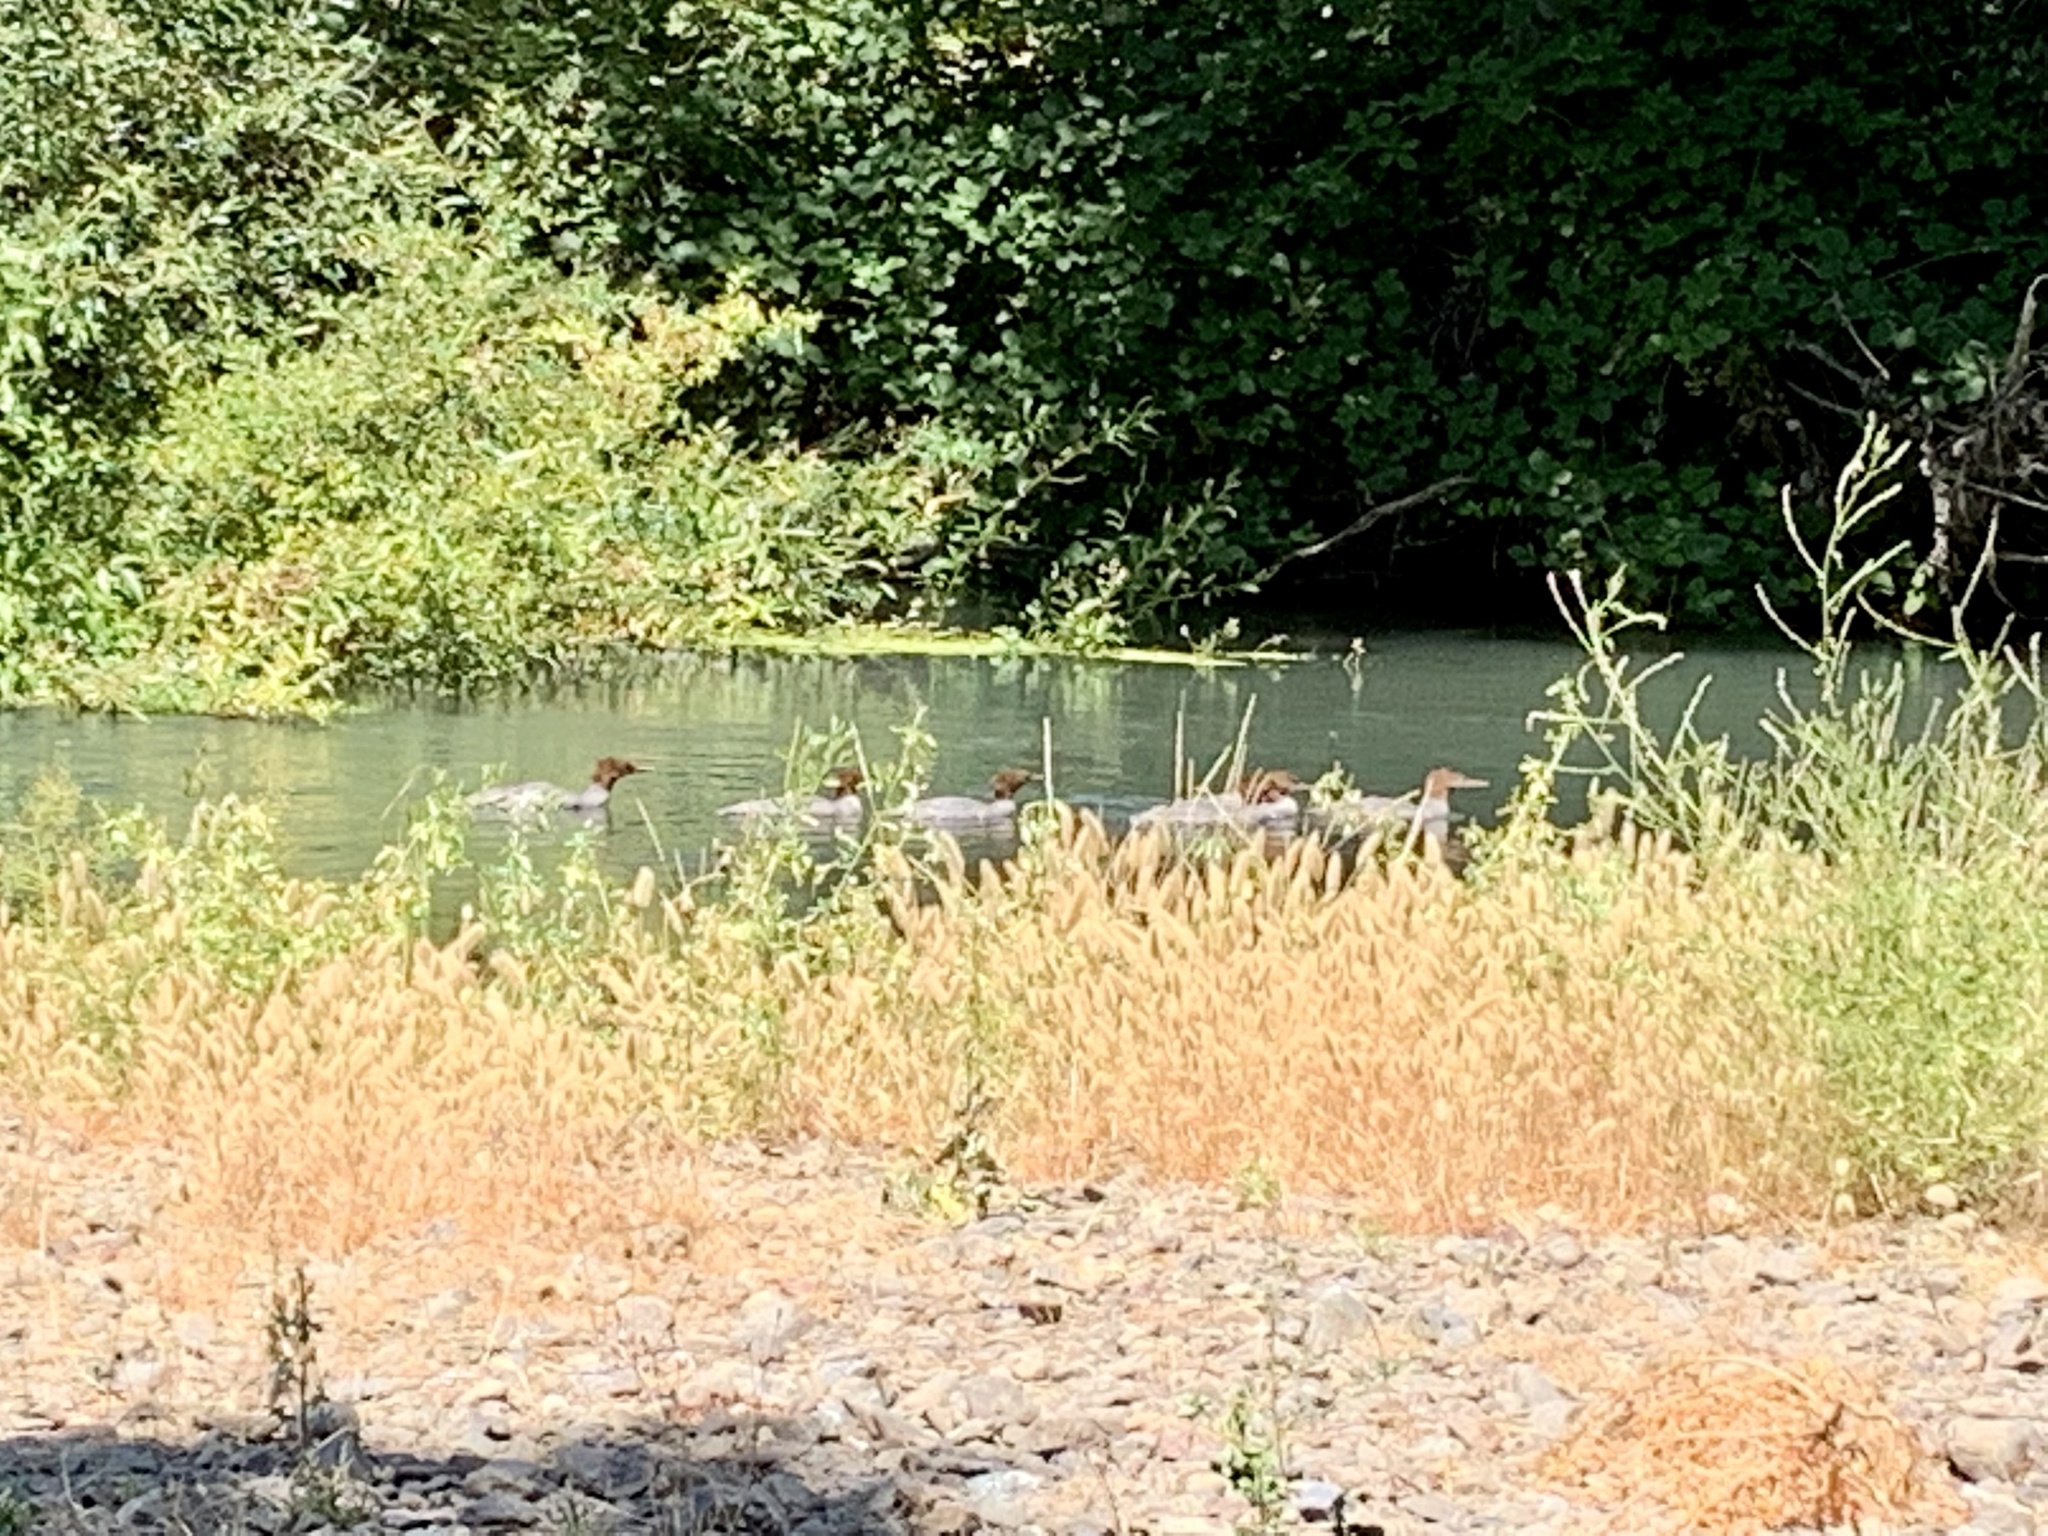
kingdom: Animalia
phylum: Chordata
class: Aves
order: Anseriformes
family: Anatidae
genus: Mergus
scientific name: Mergus merganser
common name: Common merganser
